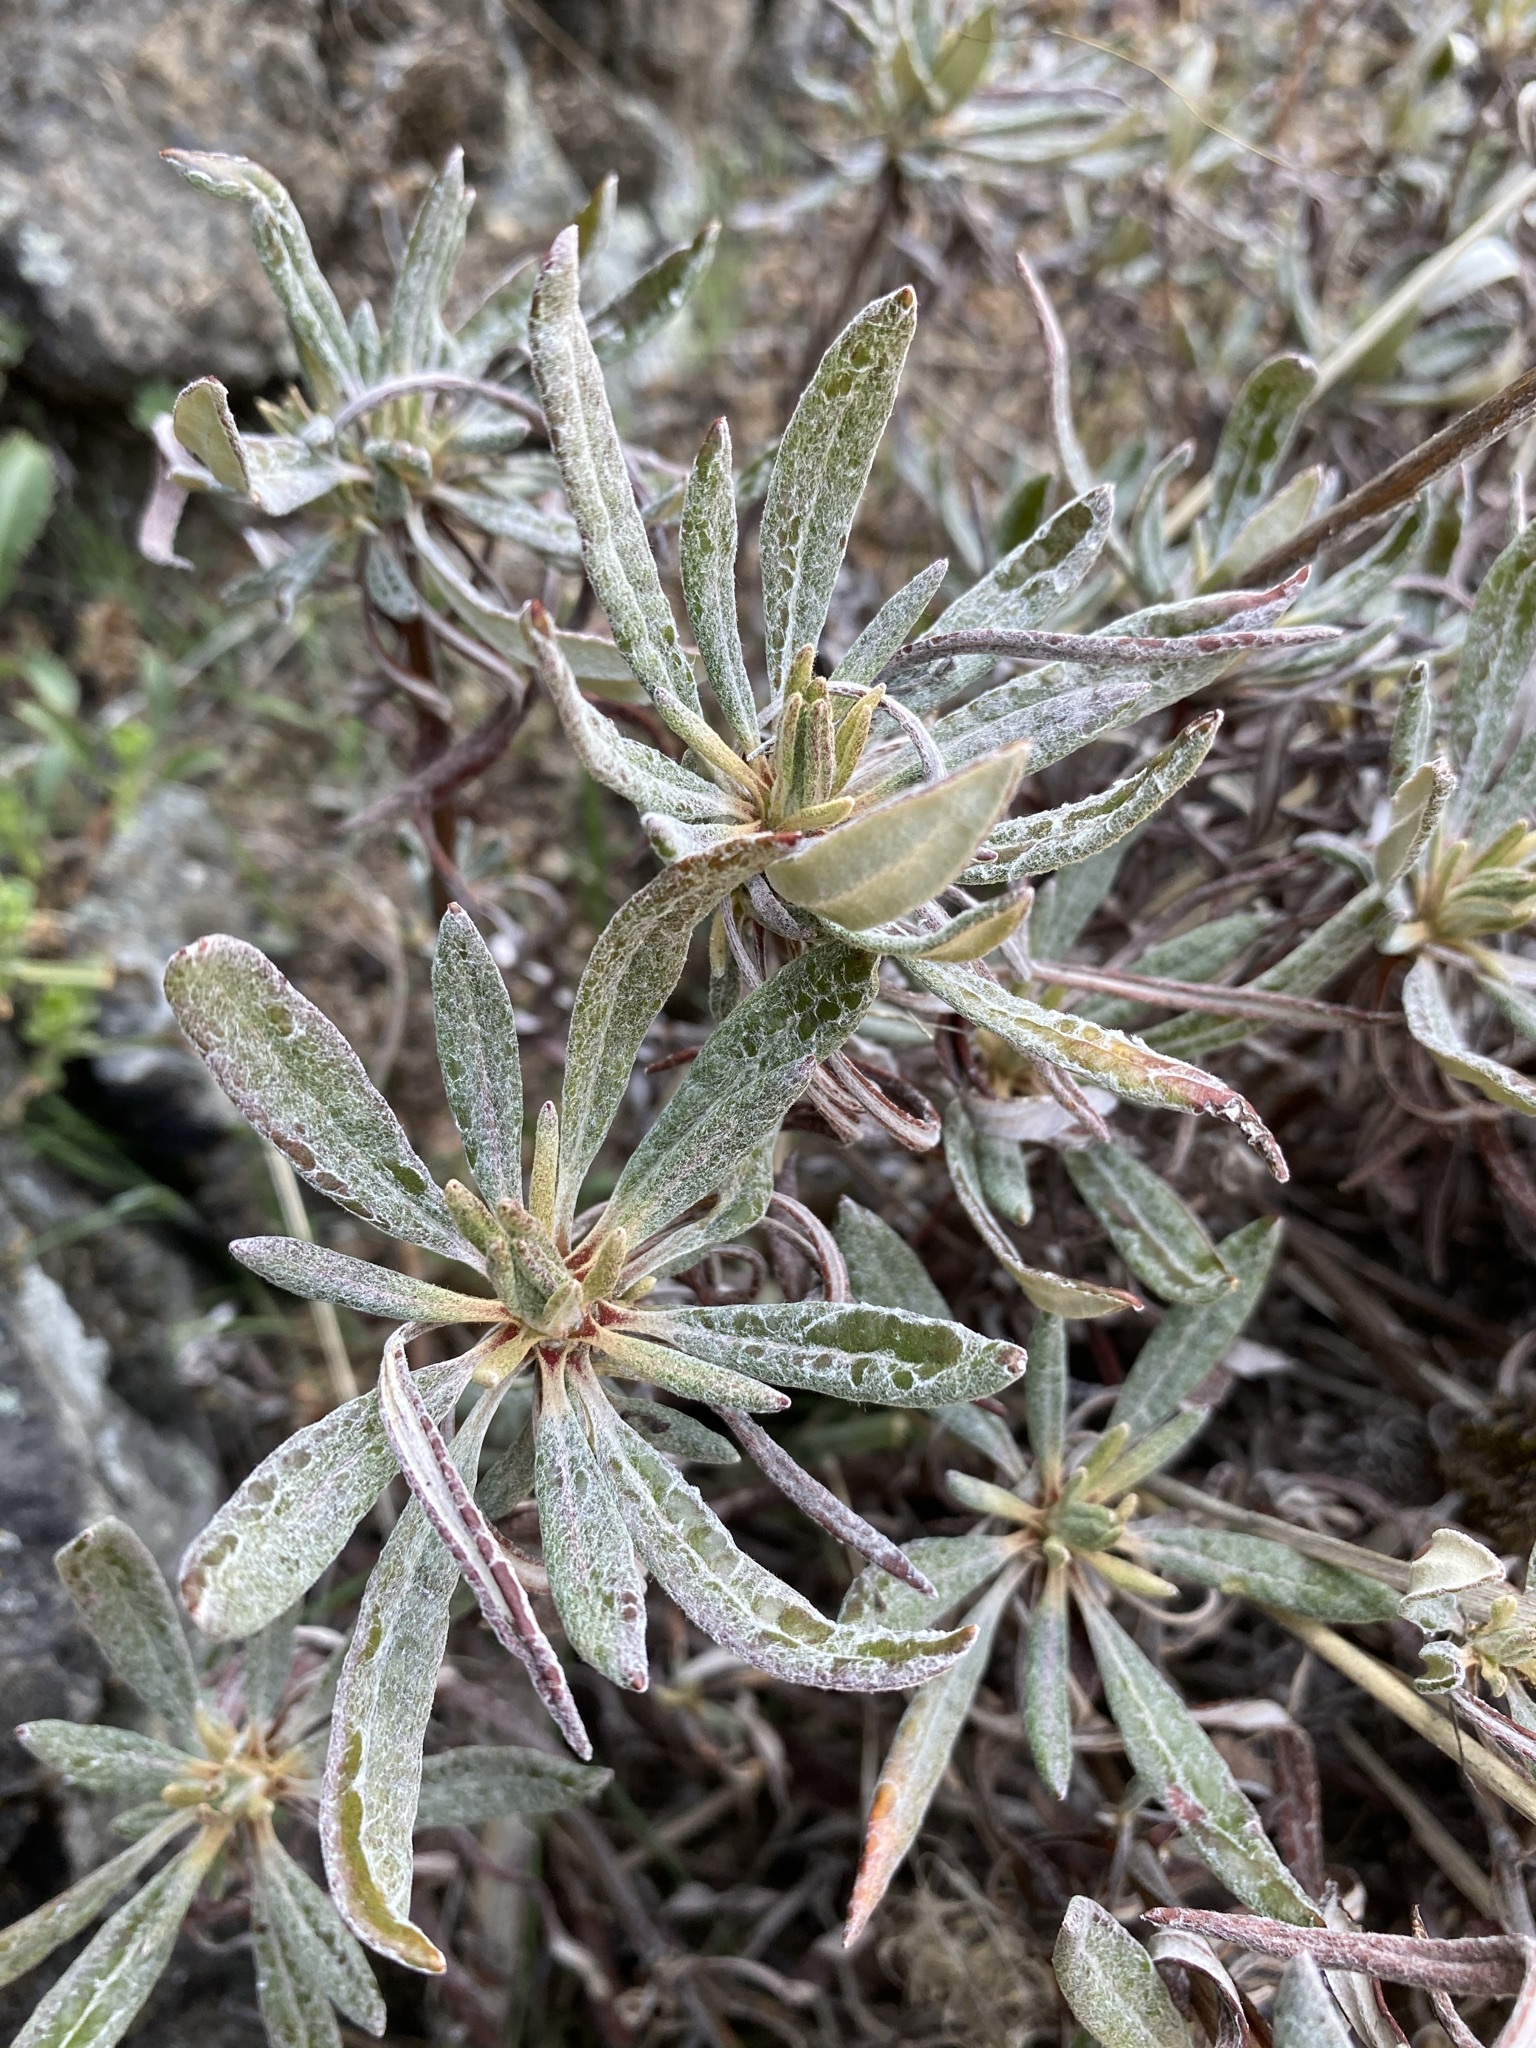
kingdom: Plantae
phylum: Tracheophyta
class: Magnoliopsida
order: Caryophyllales
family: Polygonaceae
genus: Eriogonum
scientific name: Eriogonum heracleoides
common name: Wyeth's buckwheat
